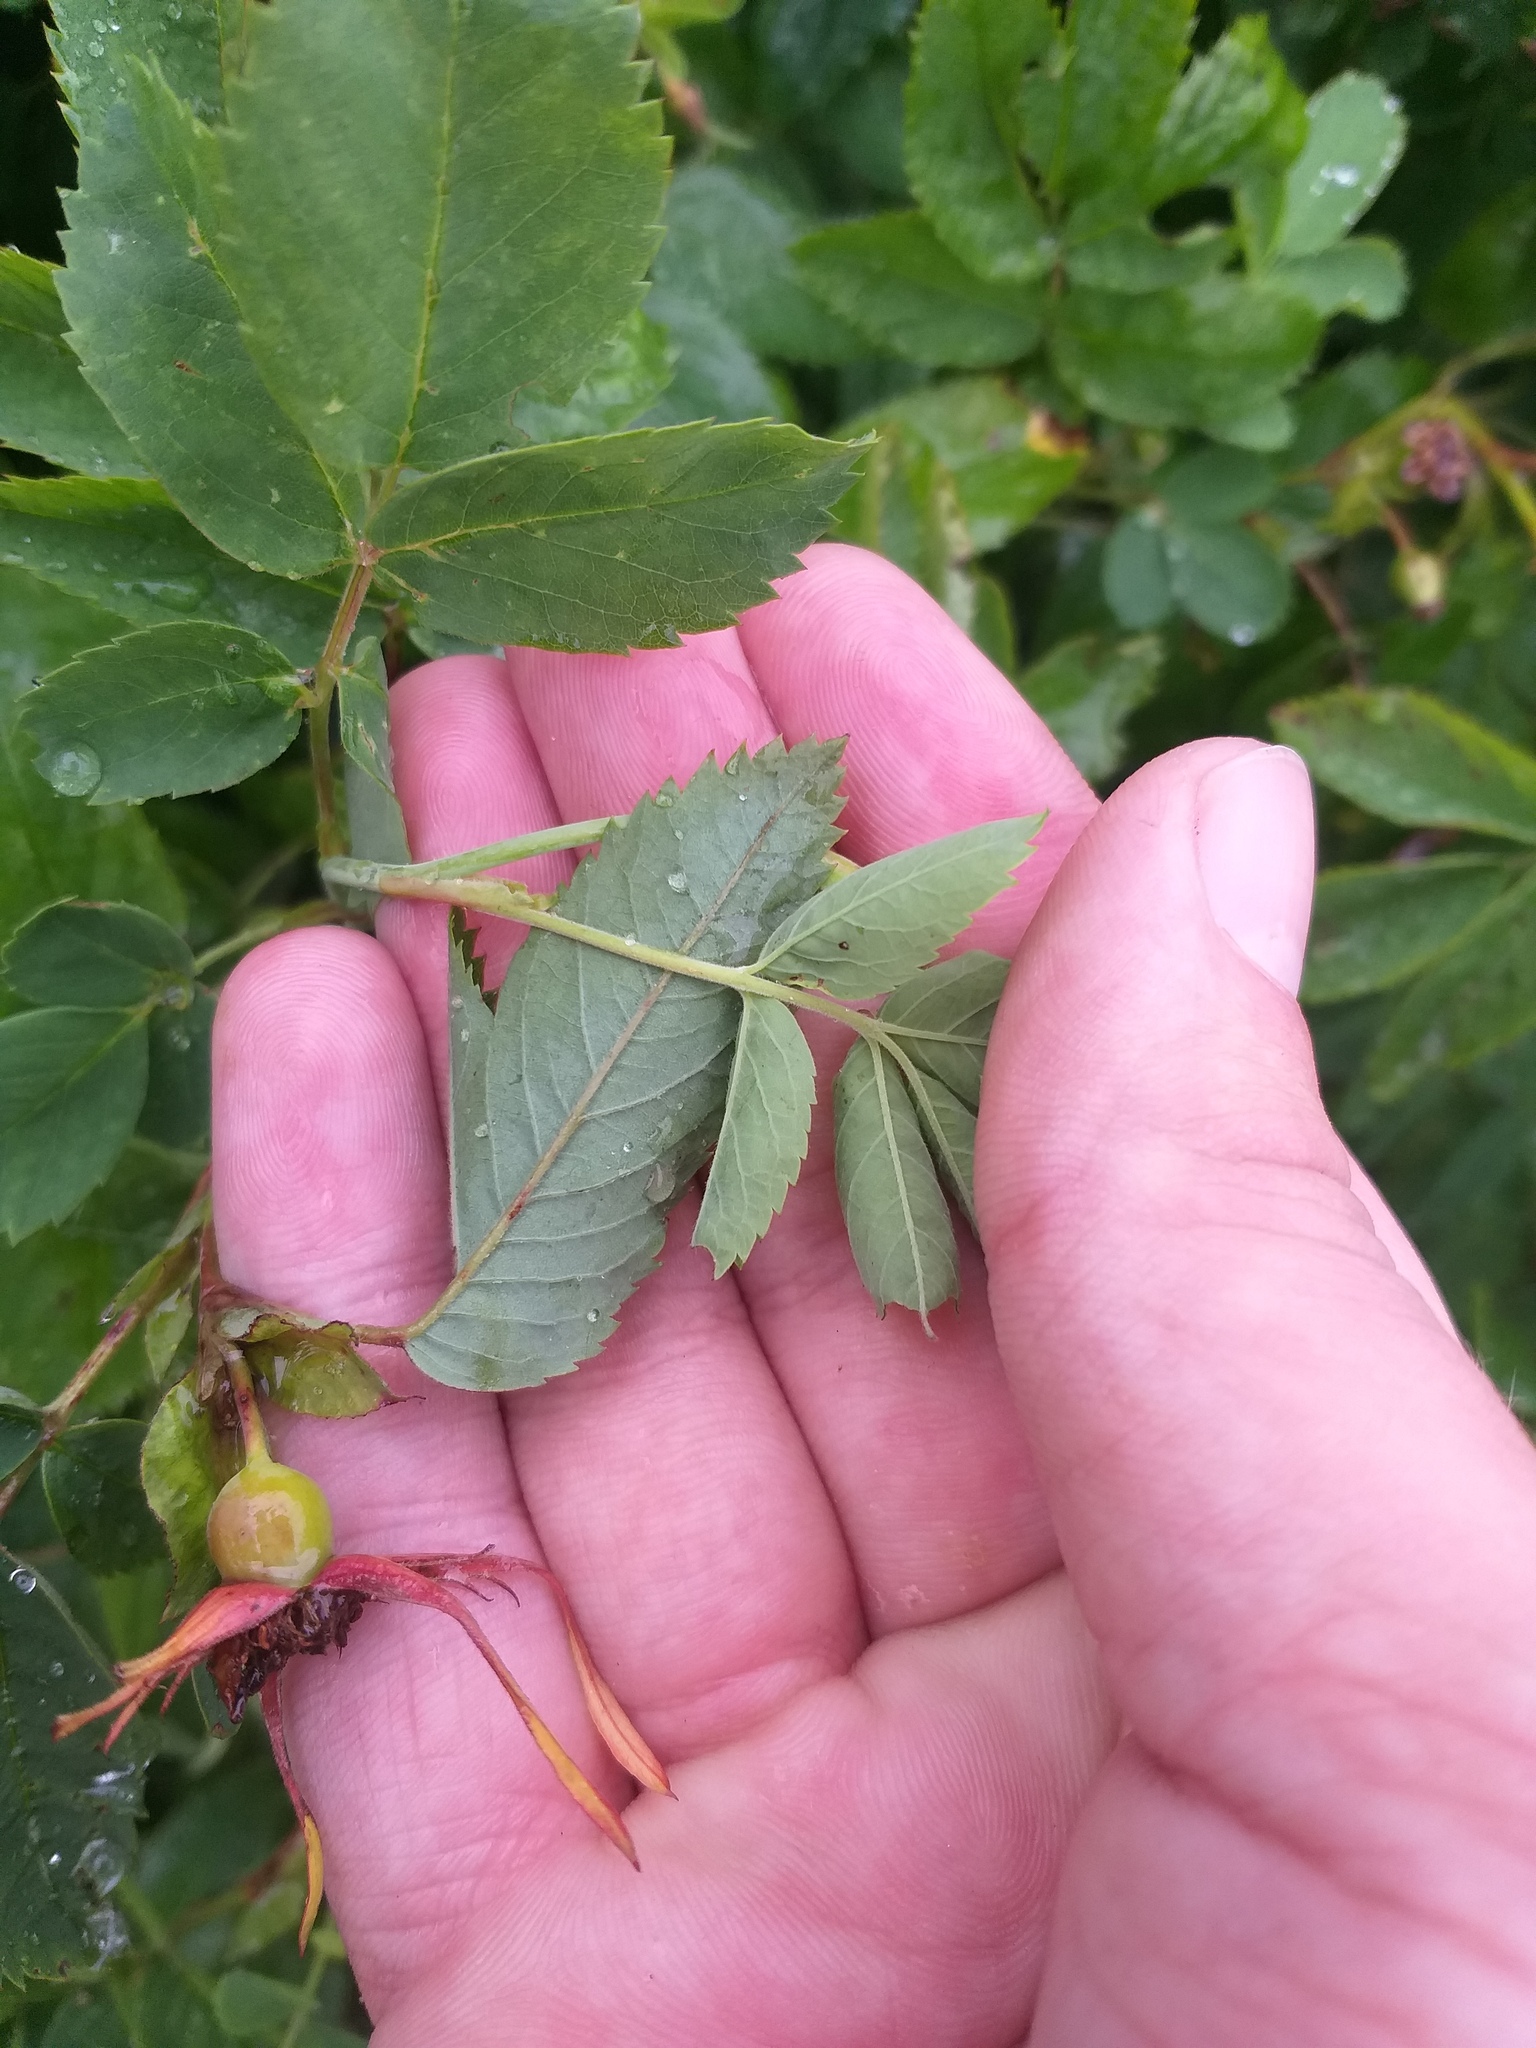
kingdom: Plantae
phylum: Tracheophyta
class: Magnoliopsida
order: Rosales
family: Rosaceae
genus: Rosa
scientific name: Rosa majalis
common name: Cinnamon rose
